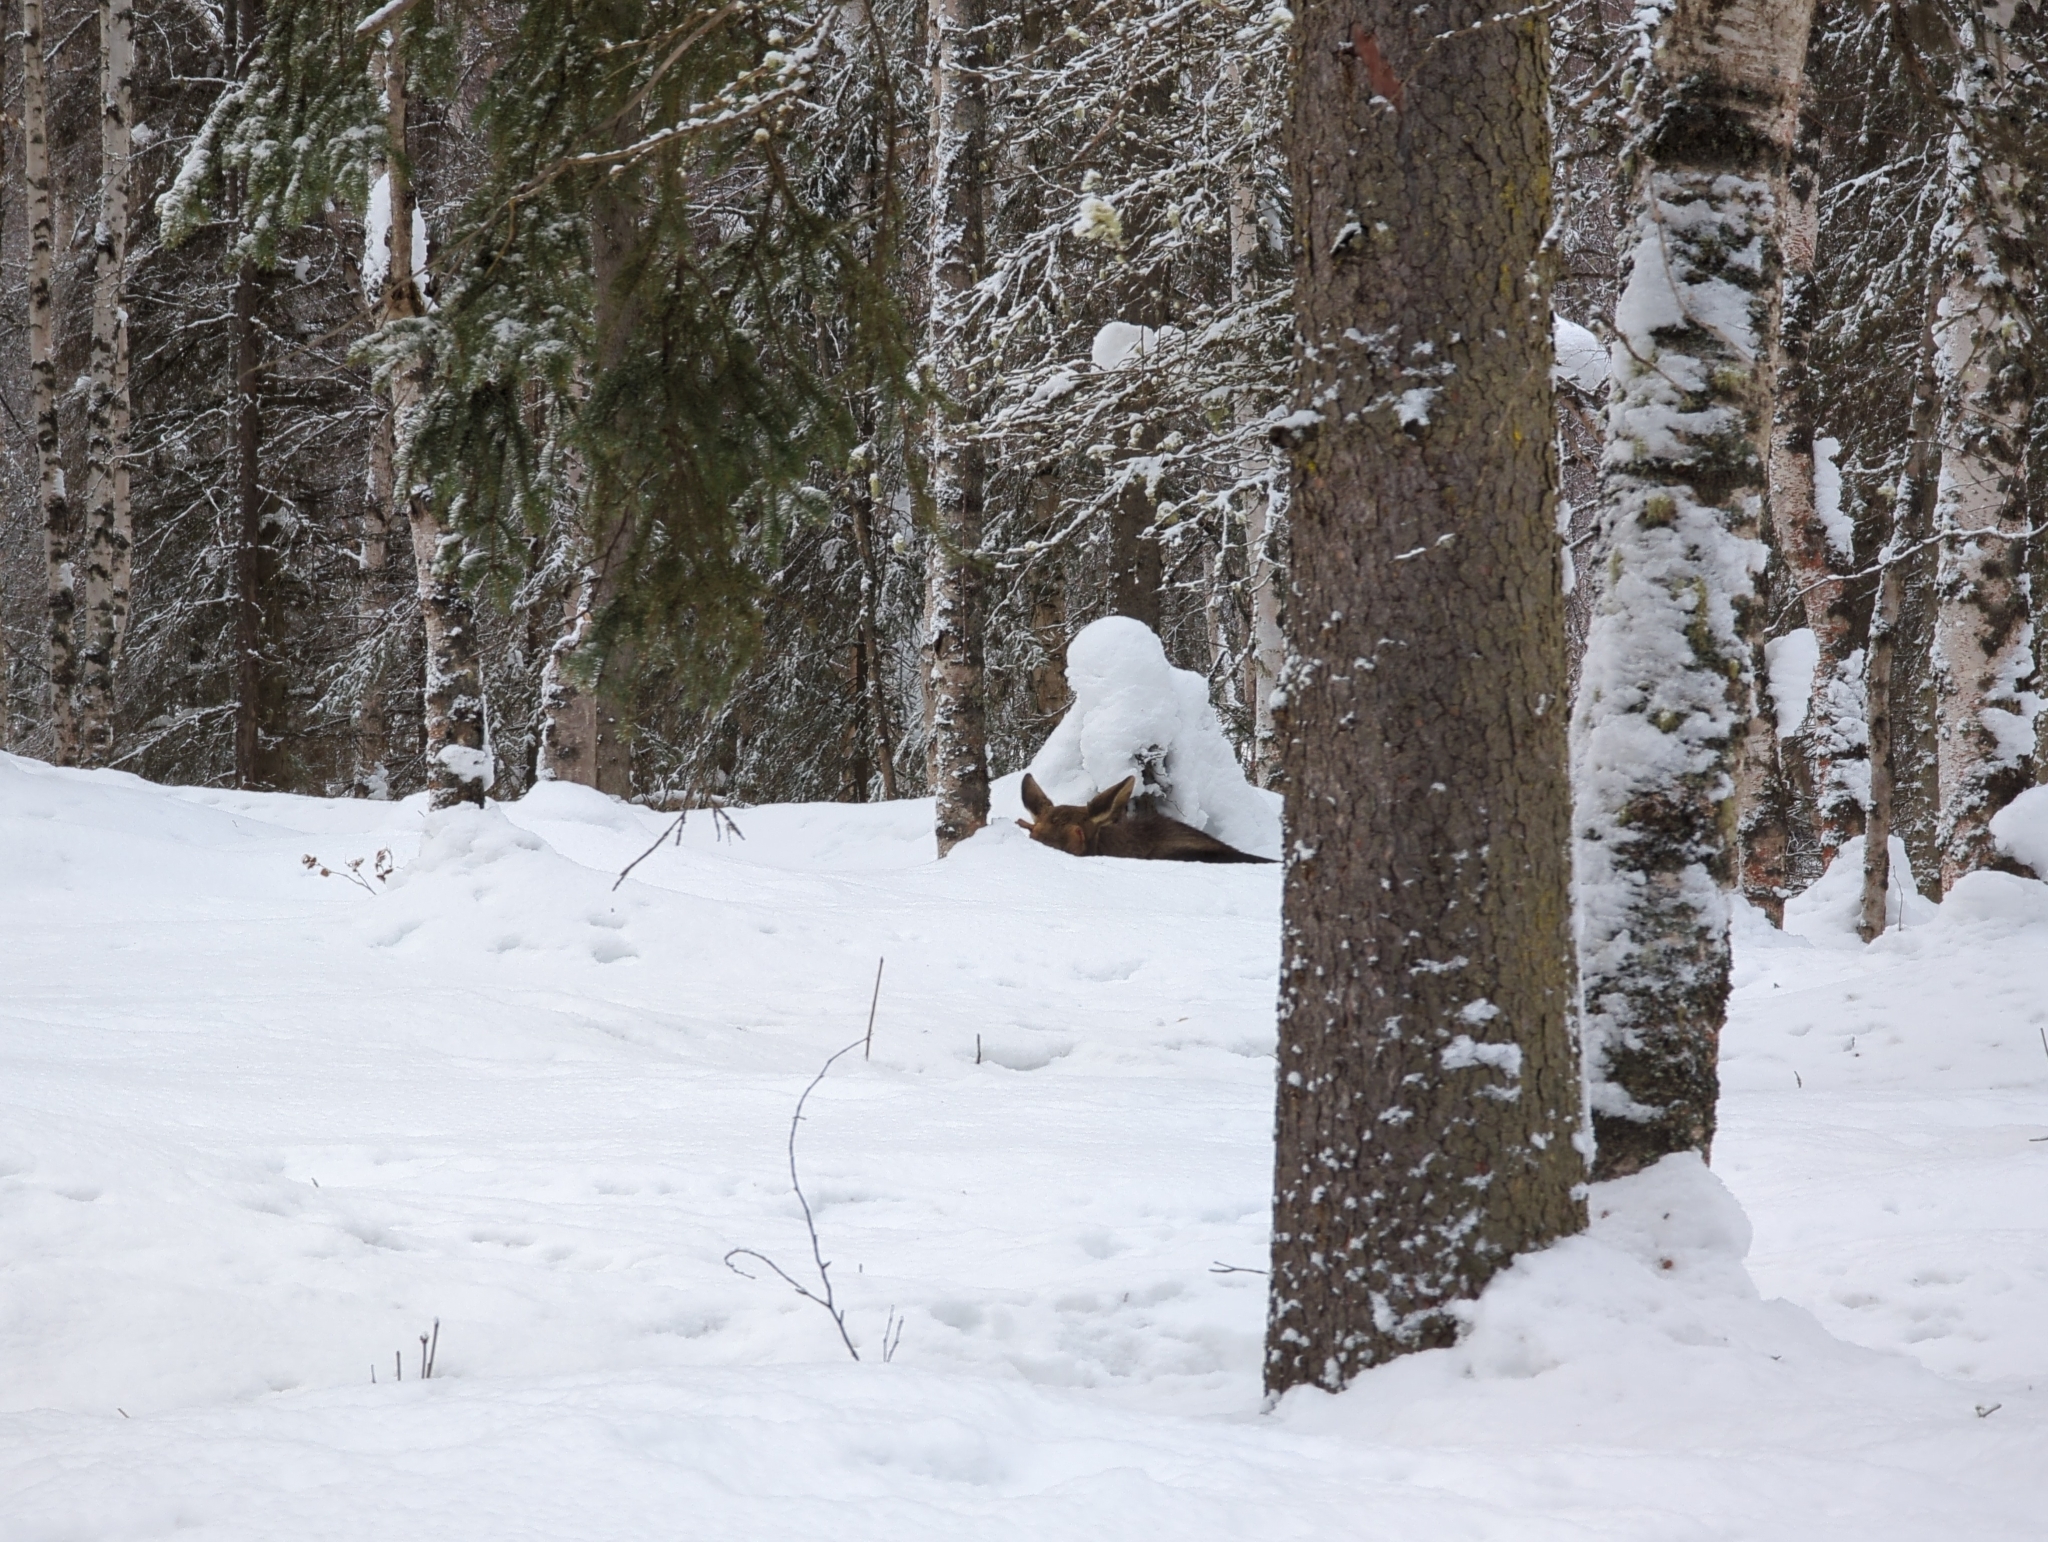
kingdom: Animalia
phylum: Chordata
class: Mammalia
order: Artiodactyla
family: Cervidae
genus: Alces
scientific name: Alces alces
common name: Moose
